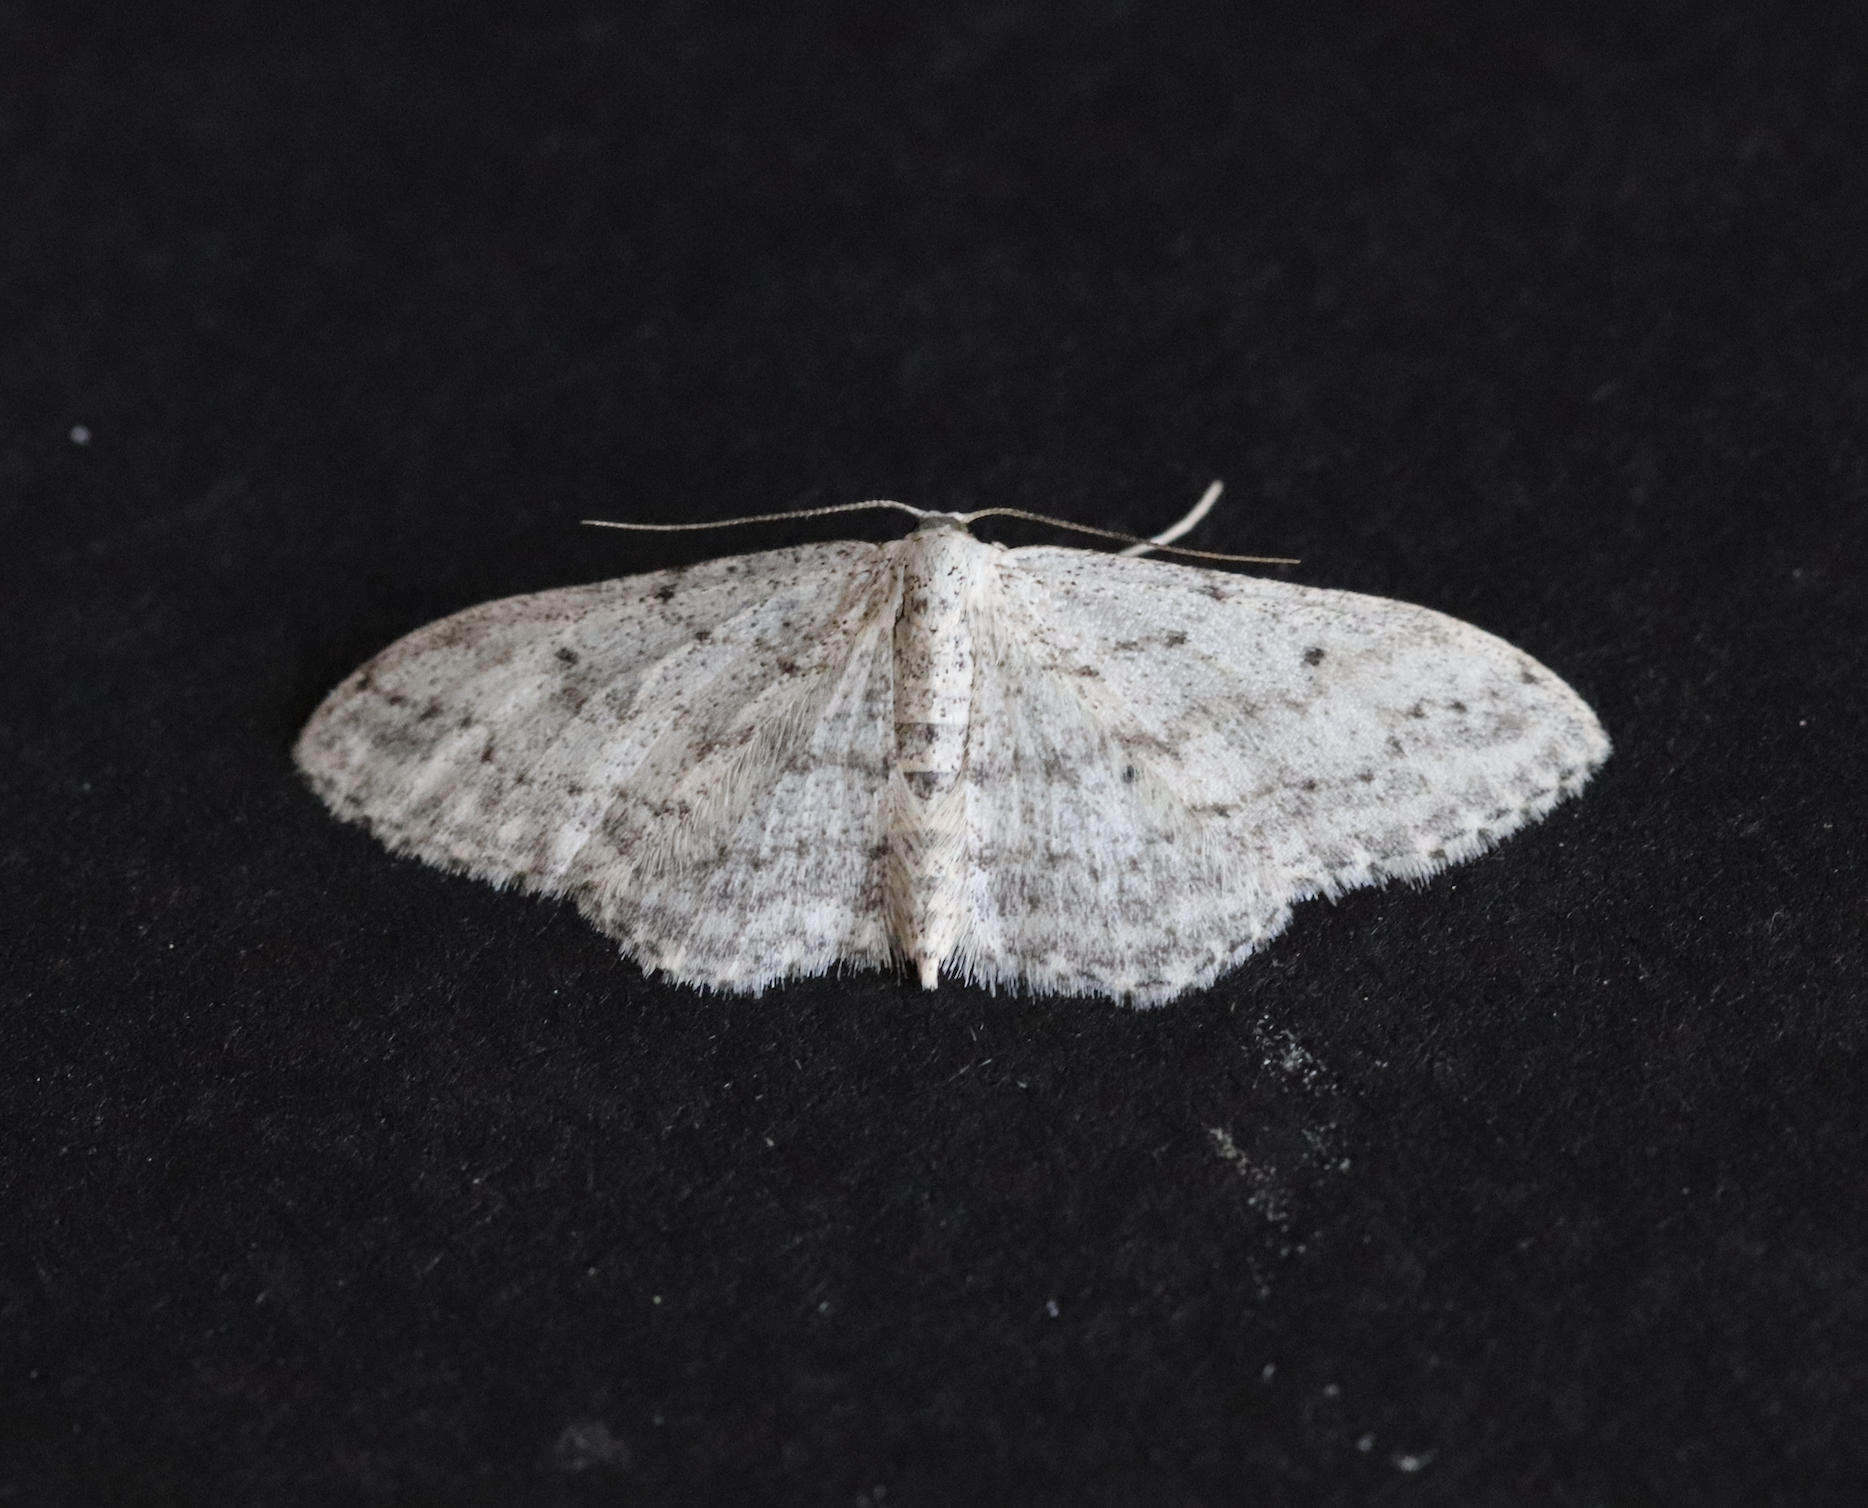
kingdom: Animalia
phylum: Arthropoda
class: Insecta
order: Lepidoptera
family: Geometridae
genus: Idaea
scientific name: Idaea seriata
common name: Small dusty wave
